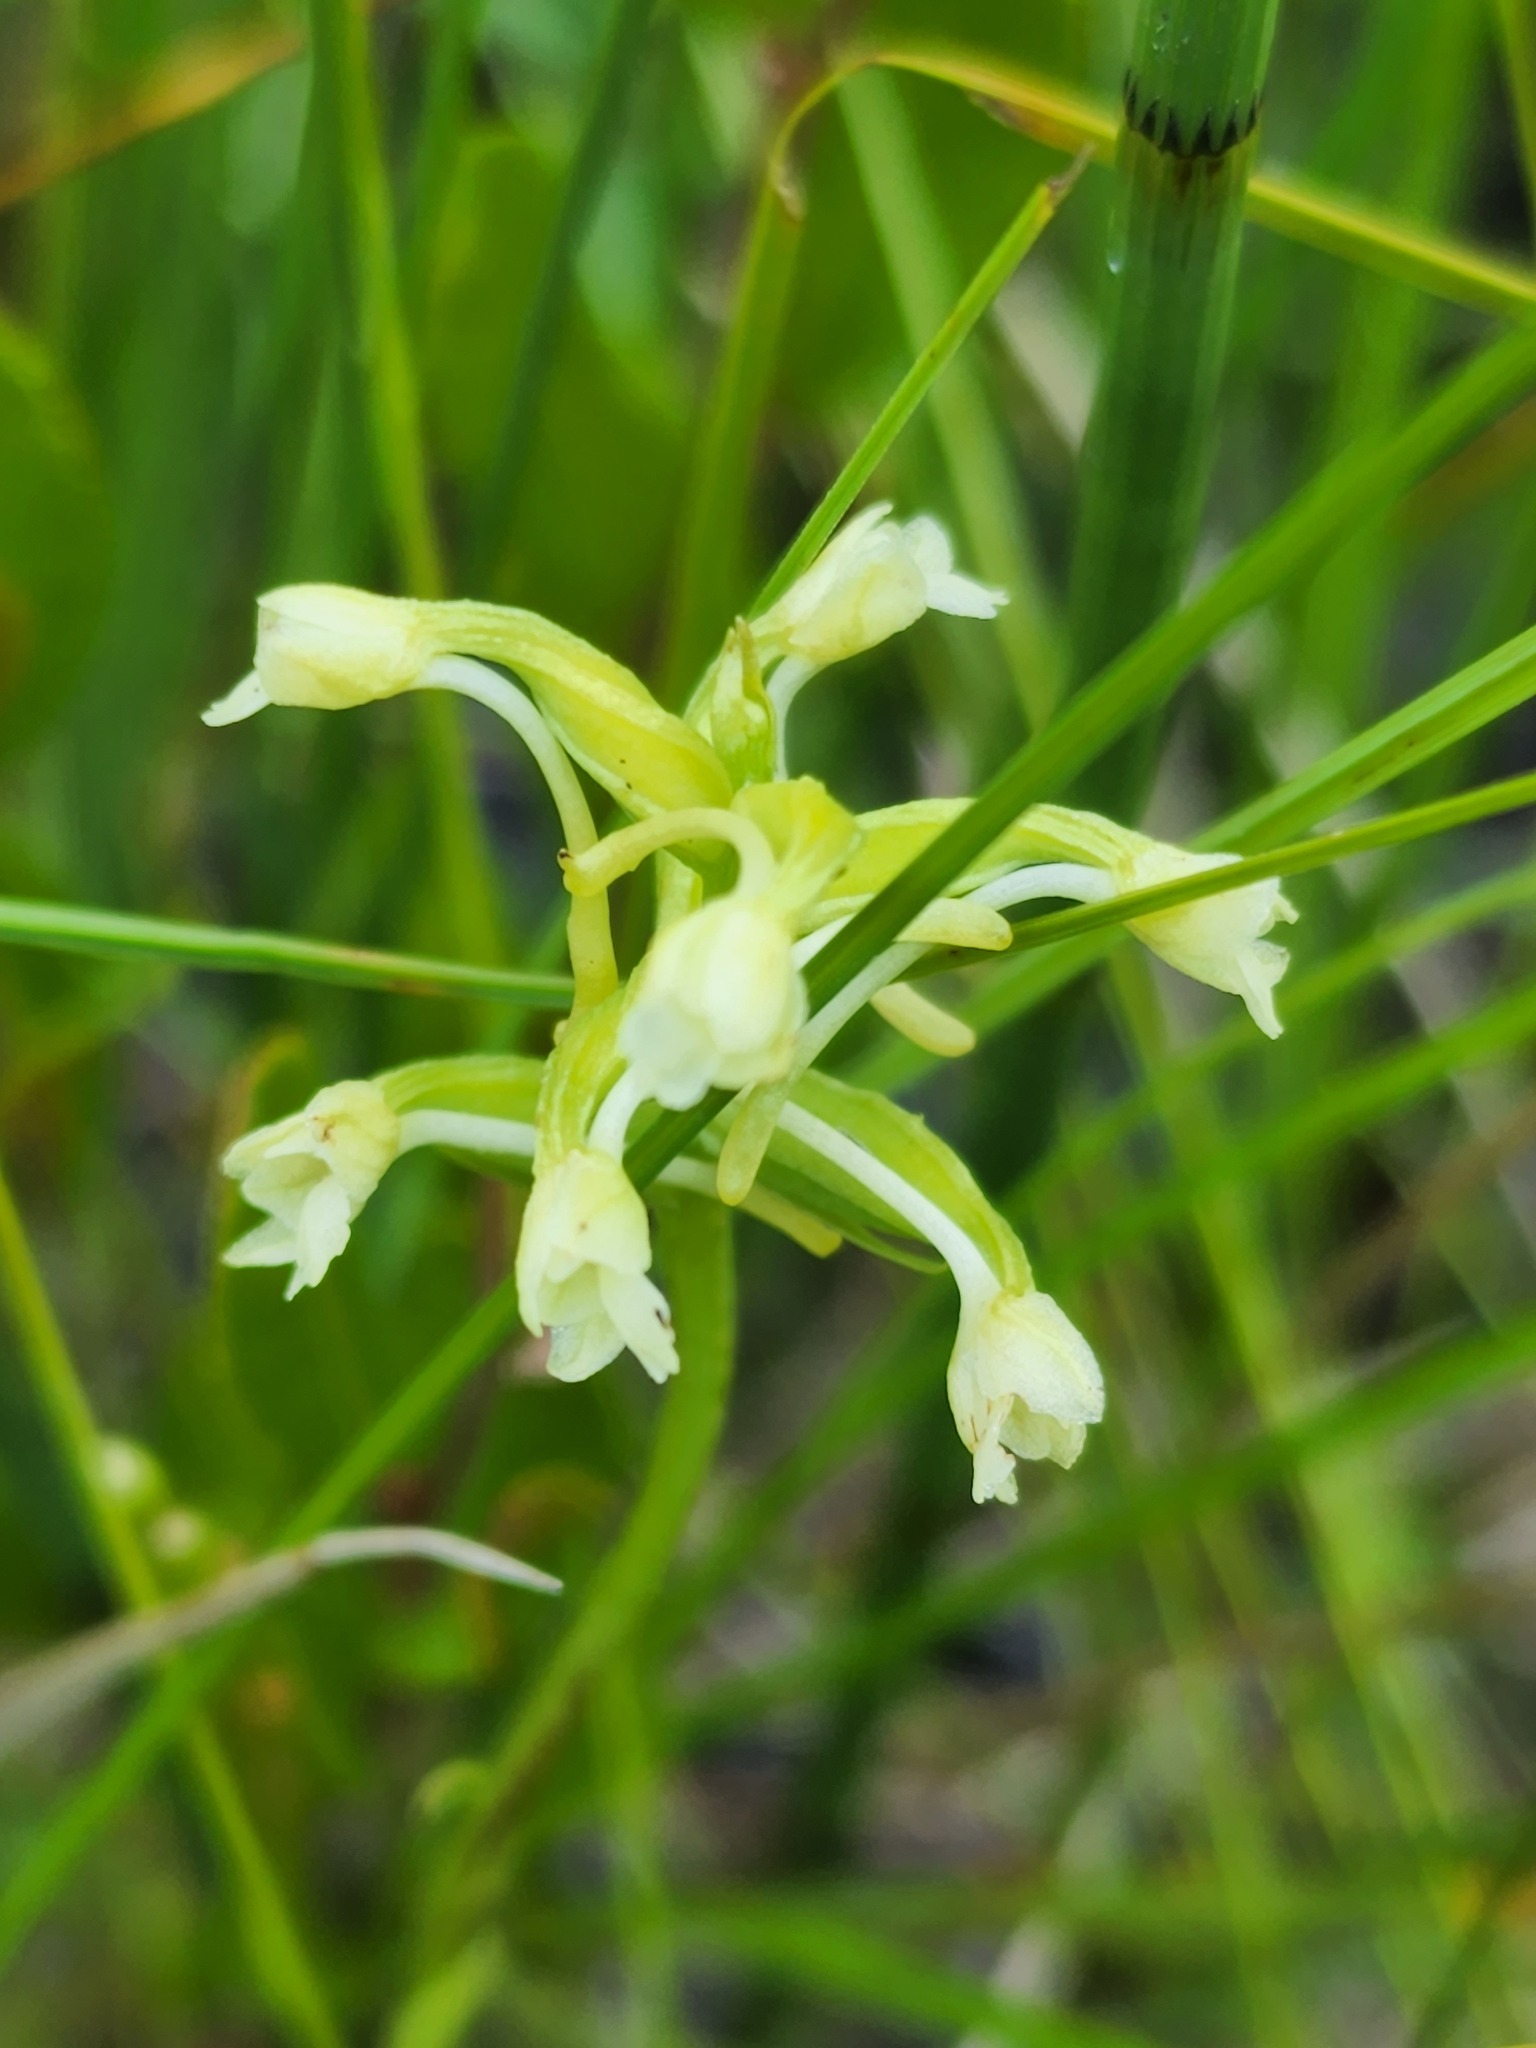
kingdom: Plantae
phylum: Tracheophyta
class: Liliopsida
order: Asparagales
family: Orchidaceae
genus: Platanthera
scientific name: Platanthera clavellata
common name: Club-spur orchid
